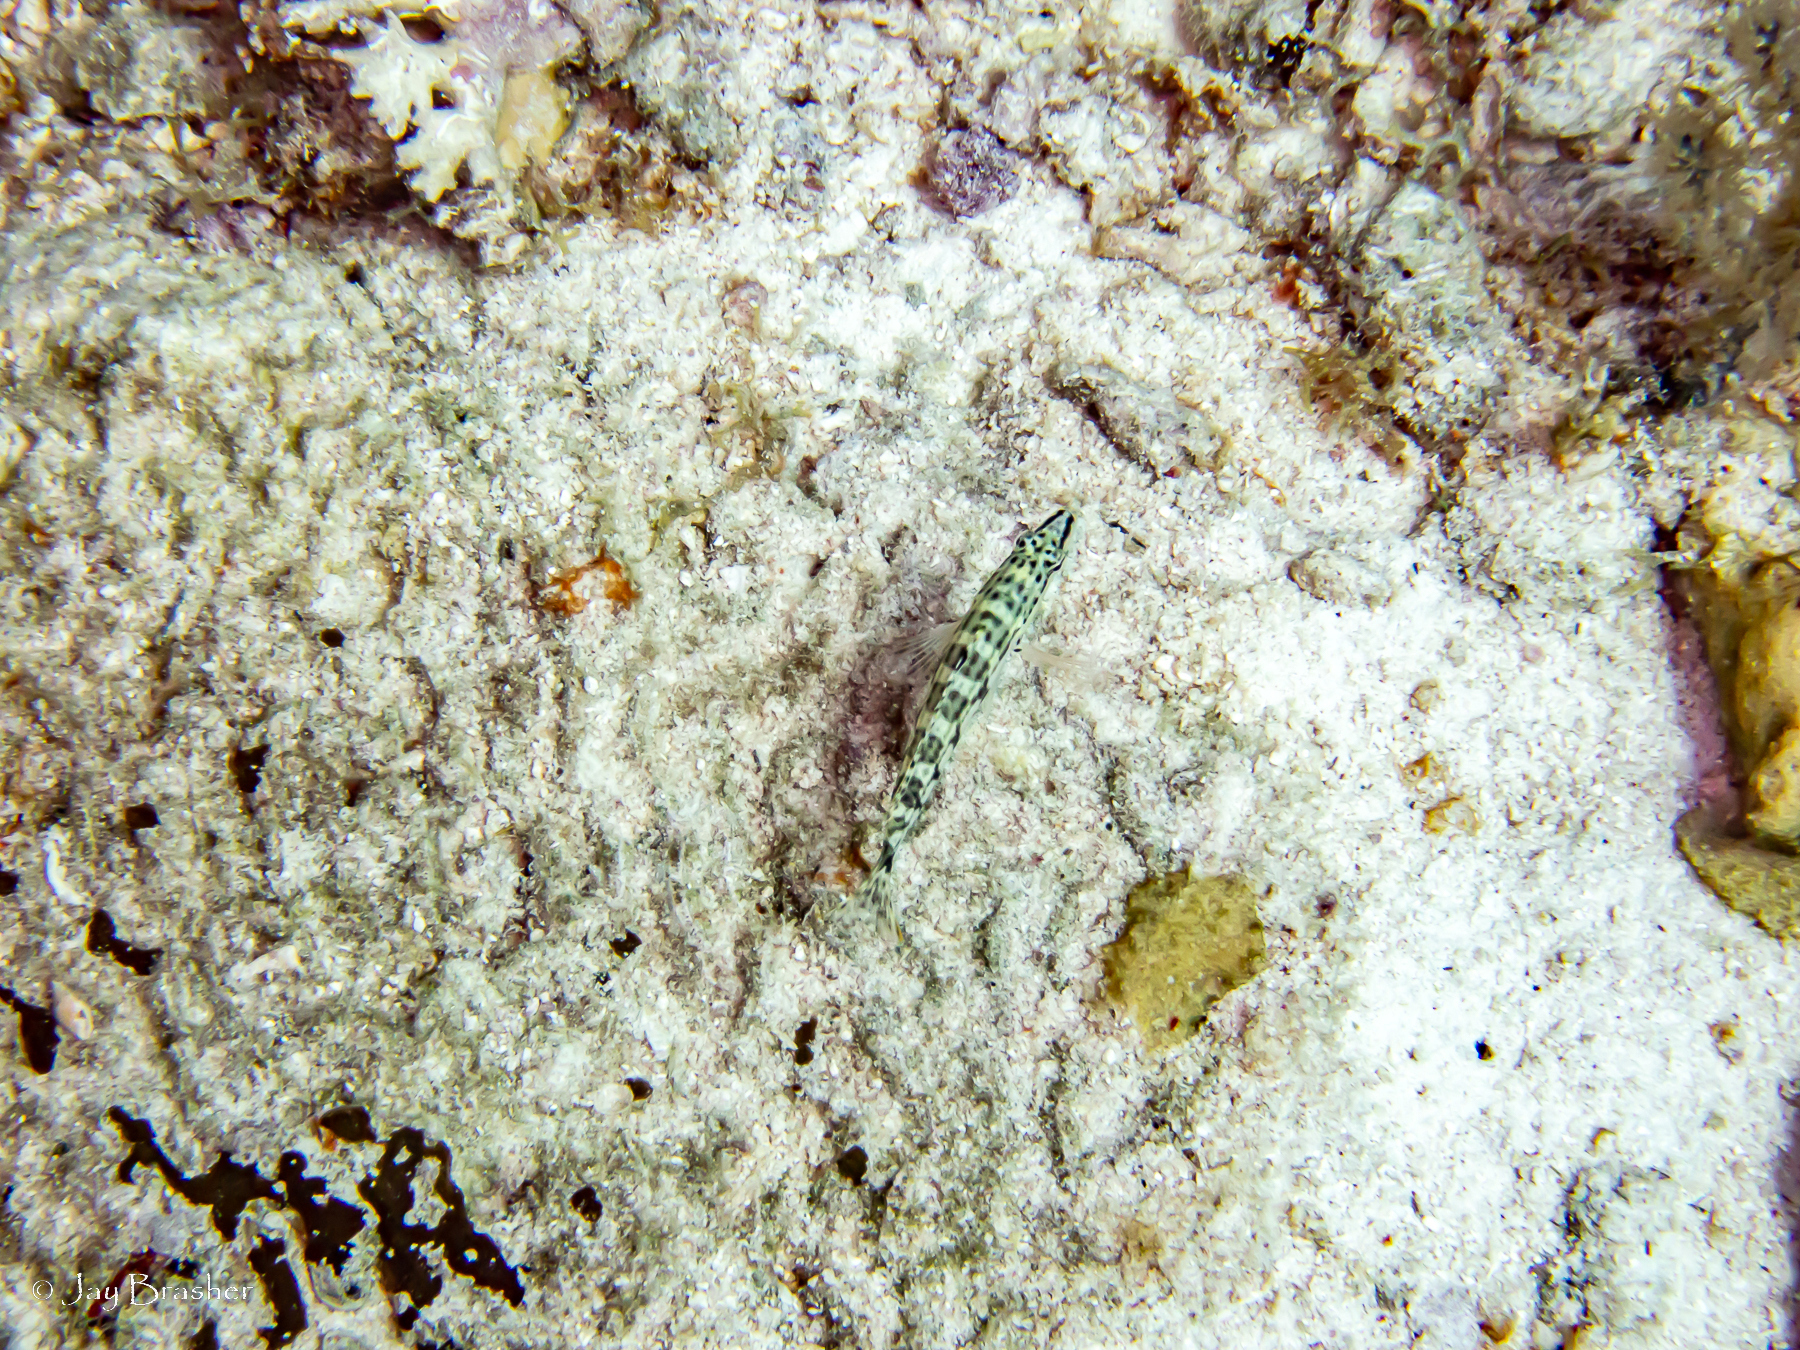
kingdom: Animalia
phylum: Chordata
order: Perciformes
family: Serranidae
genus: Serranus
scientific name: Serranus tigrinus
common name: Harlequin bass
